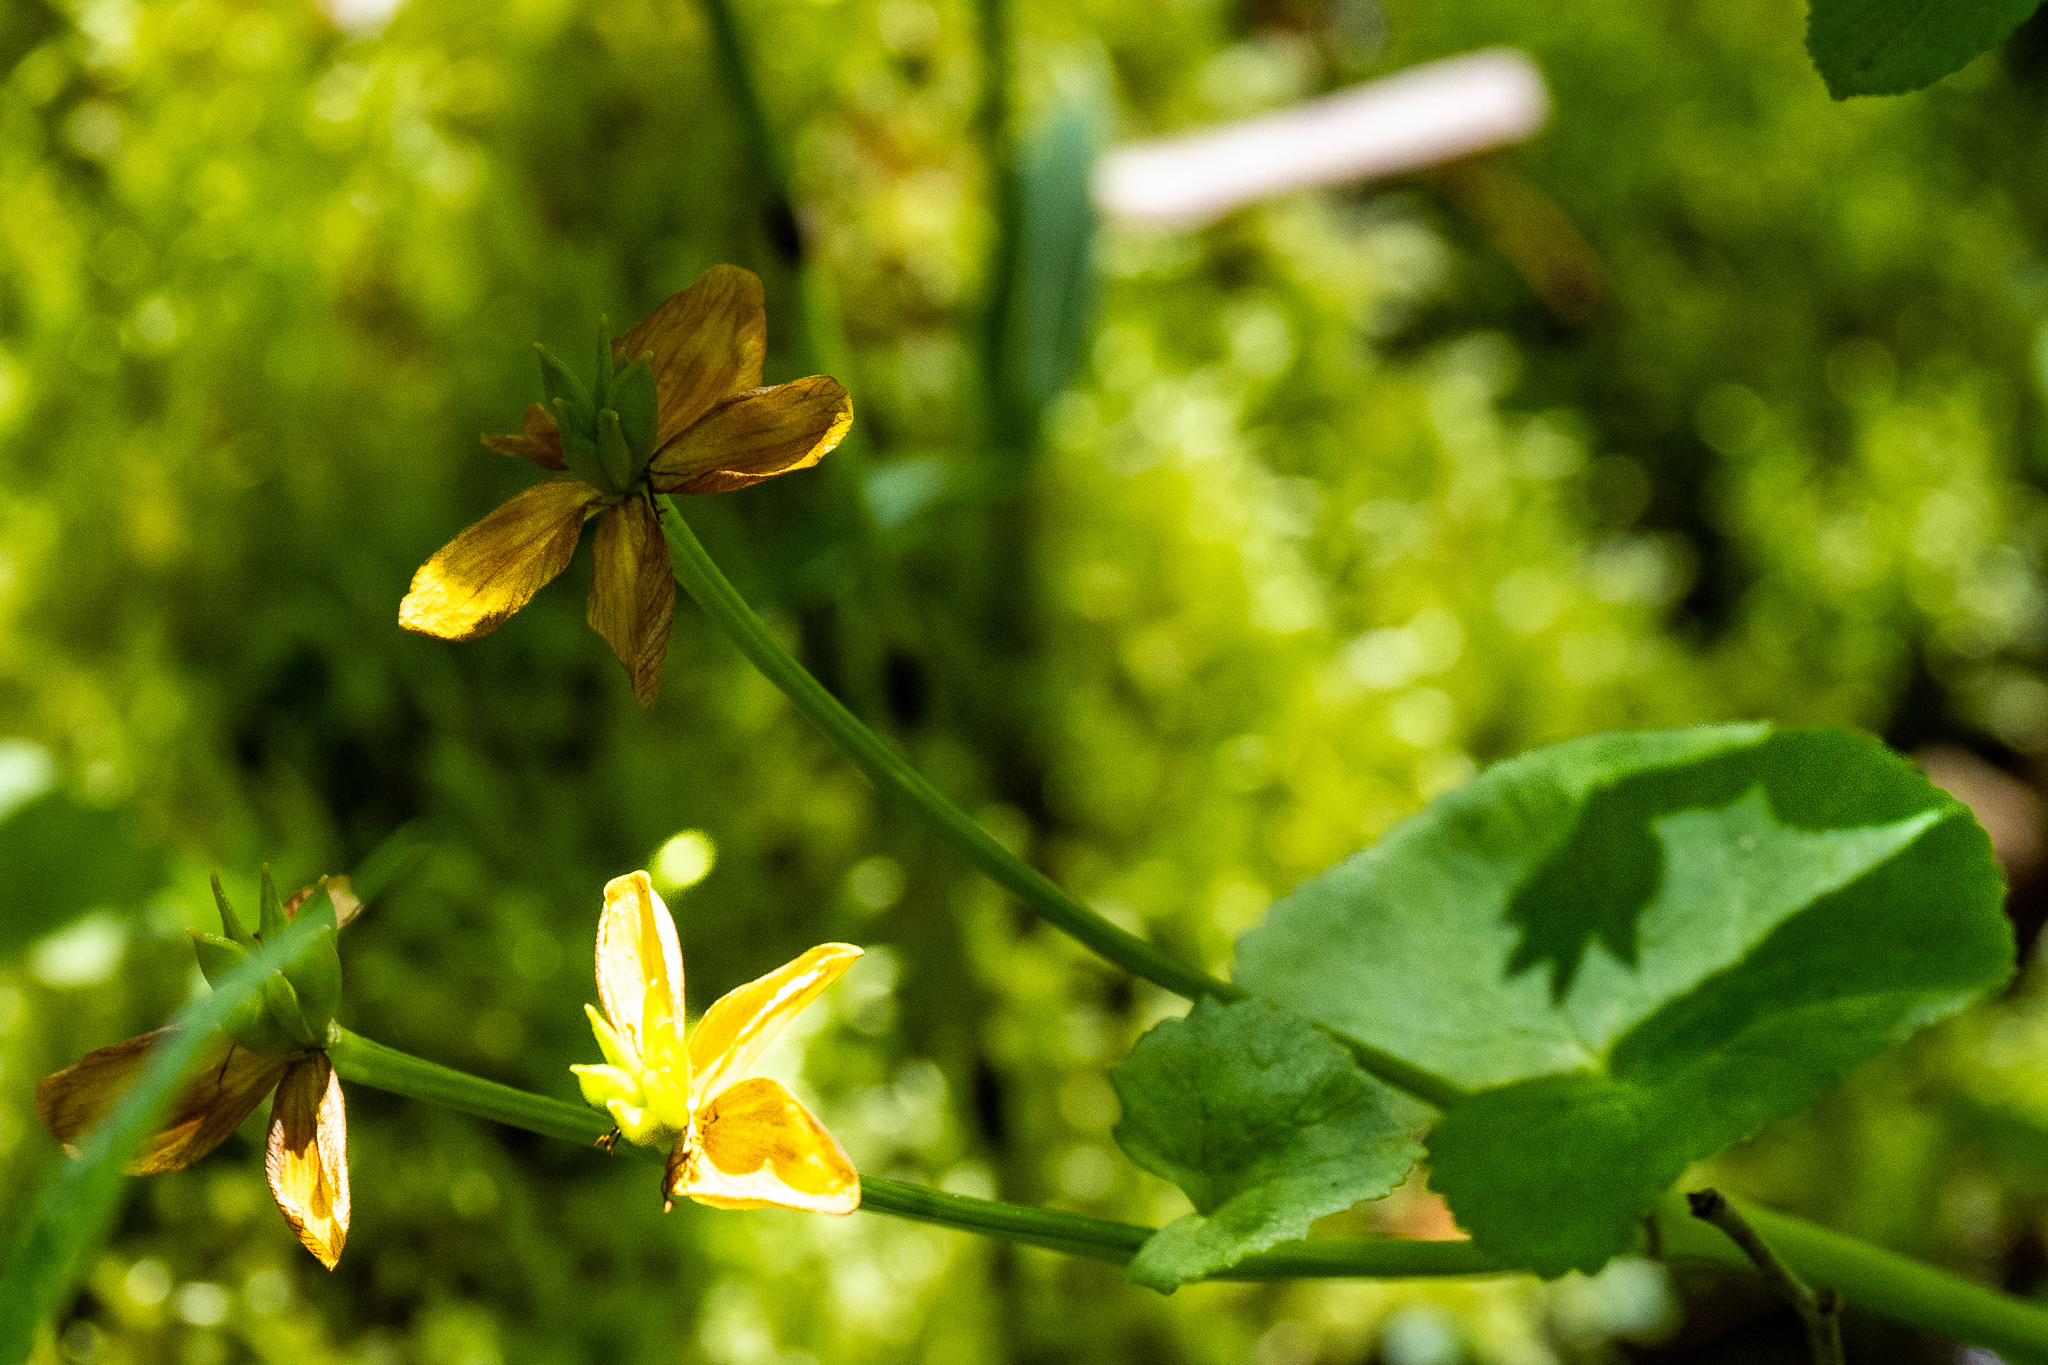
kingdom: Plantae
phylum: Tracheophyta
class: Magnoliopsida
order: Ranunculales
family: Ranunculaceae
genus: Caltha
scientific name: Caltha palustris
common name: Marsh marigold
